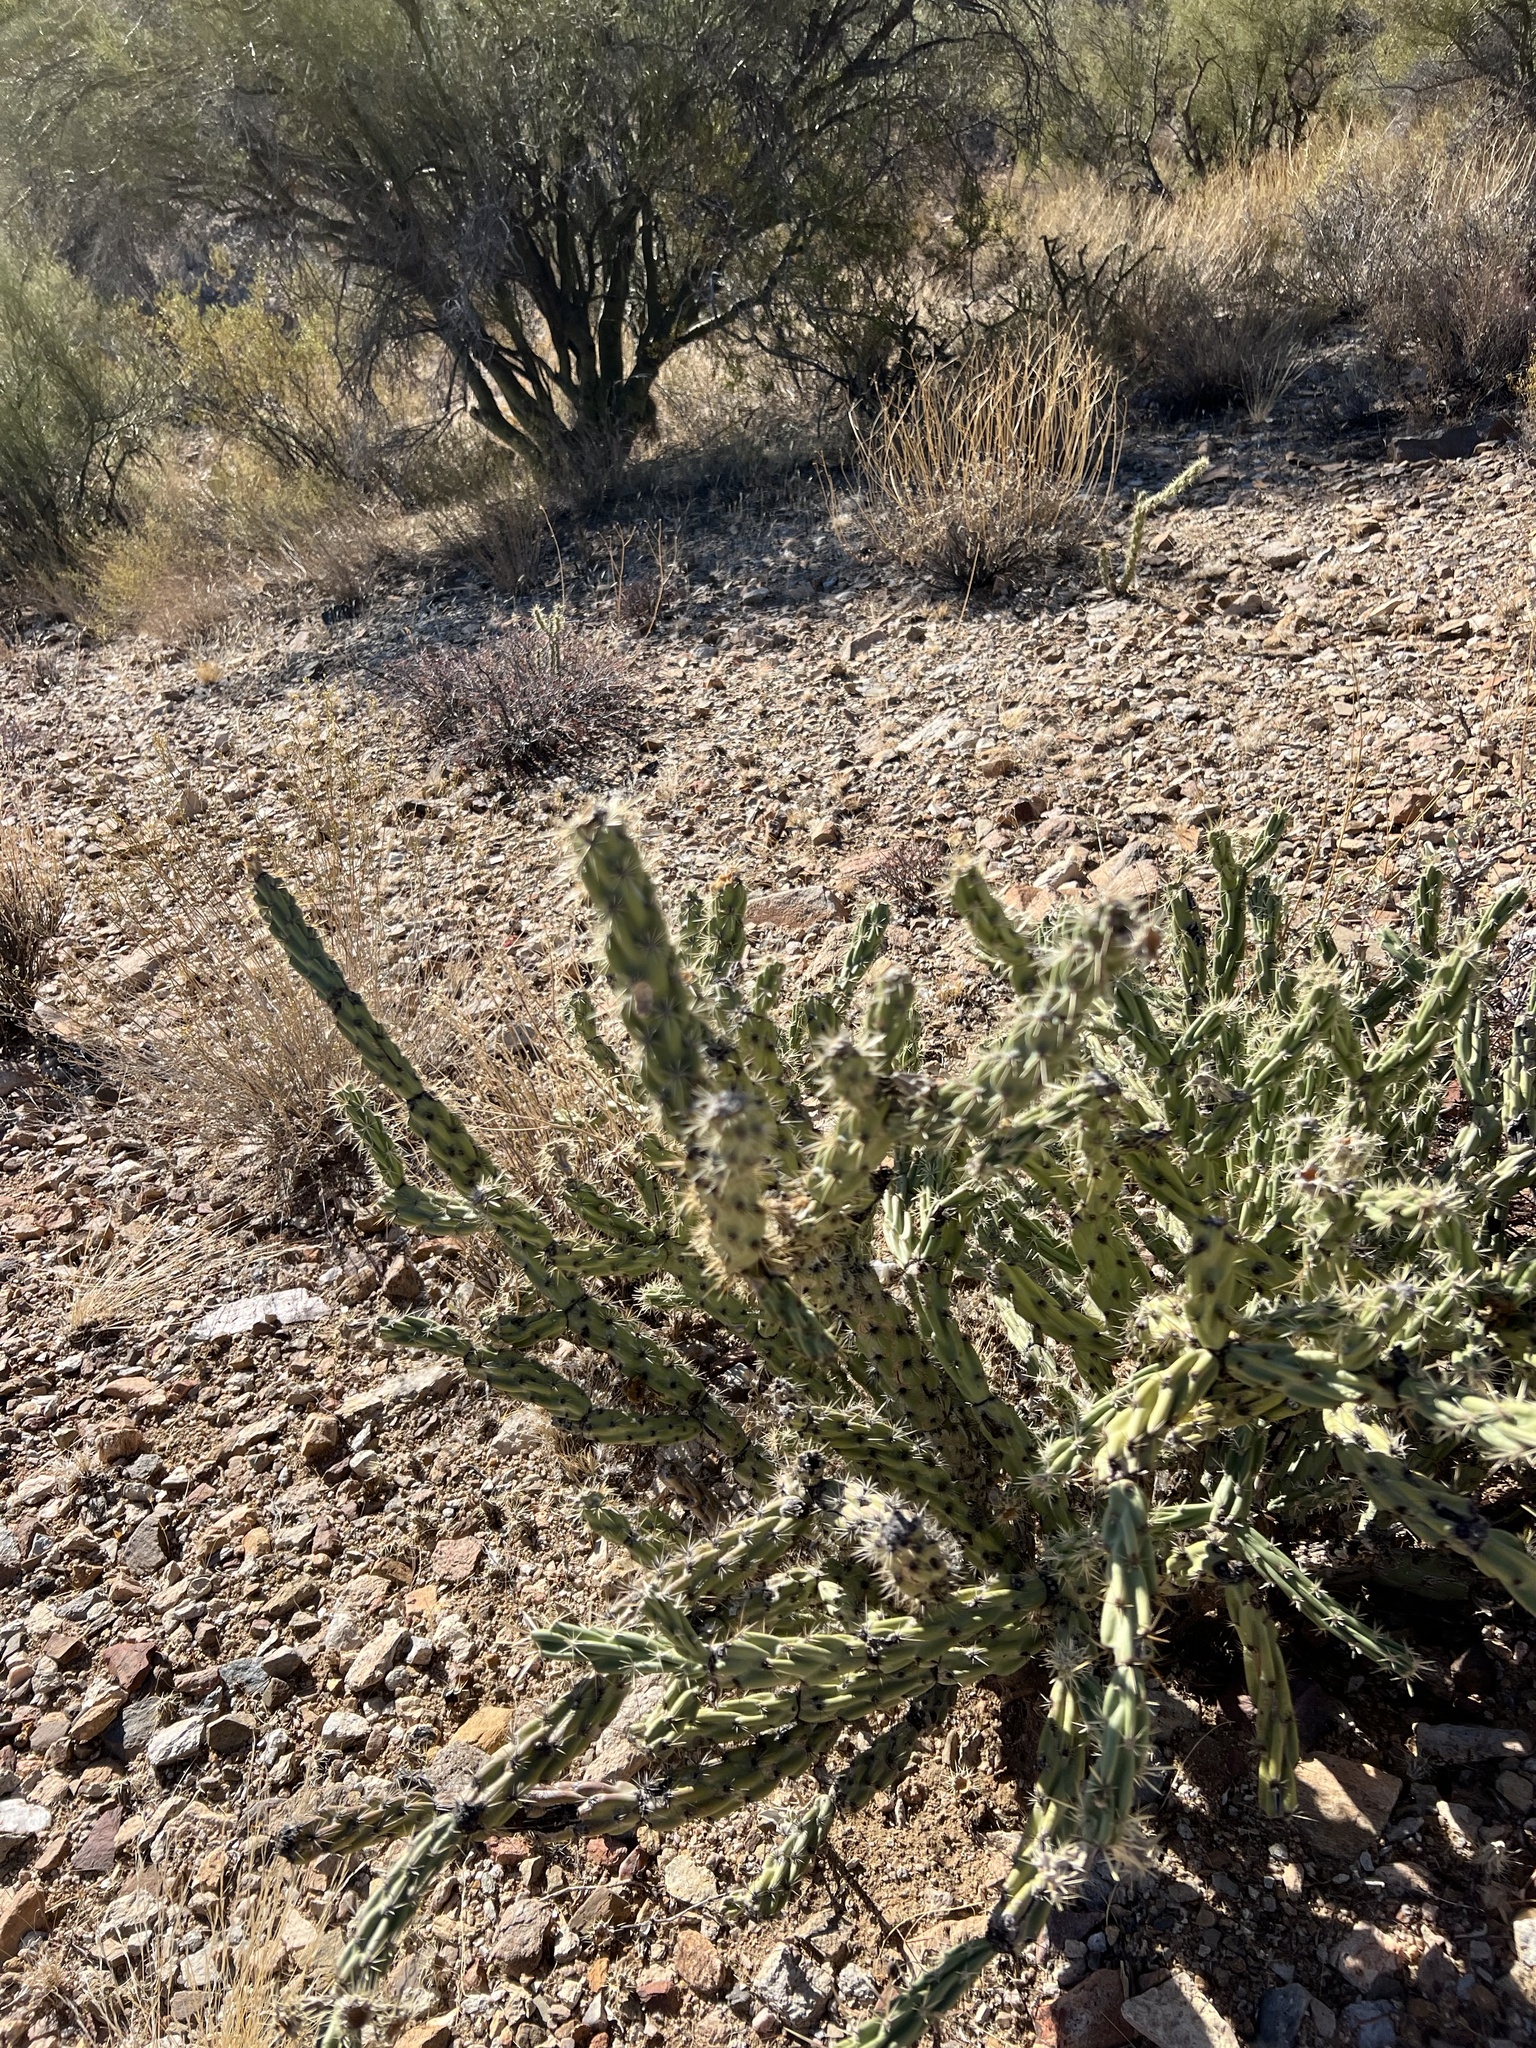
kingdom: Plantae
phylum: Tracheophyta
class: Magnoliopsida
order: Caryophyllales
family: Cactaceae
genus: Cylindropuntia
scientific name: Cylindropuntia acanthocarpa
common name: Buckhorn cholla
